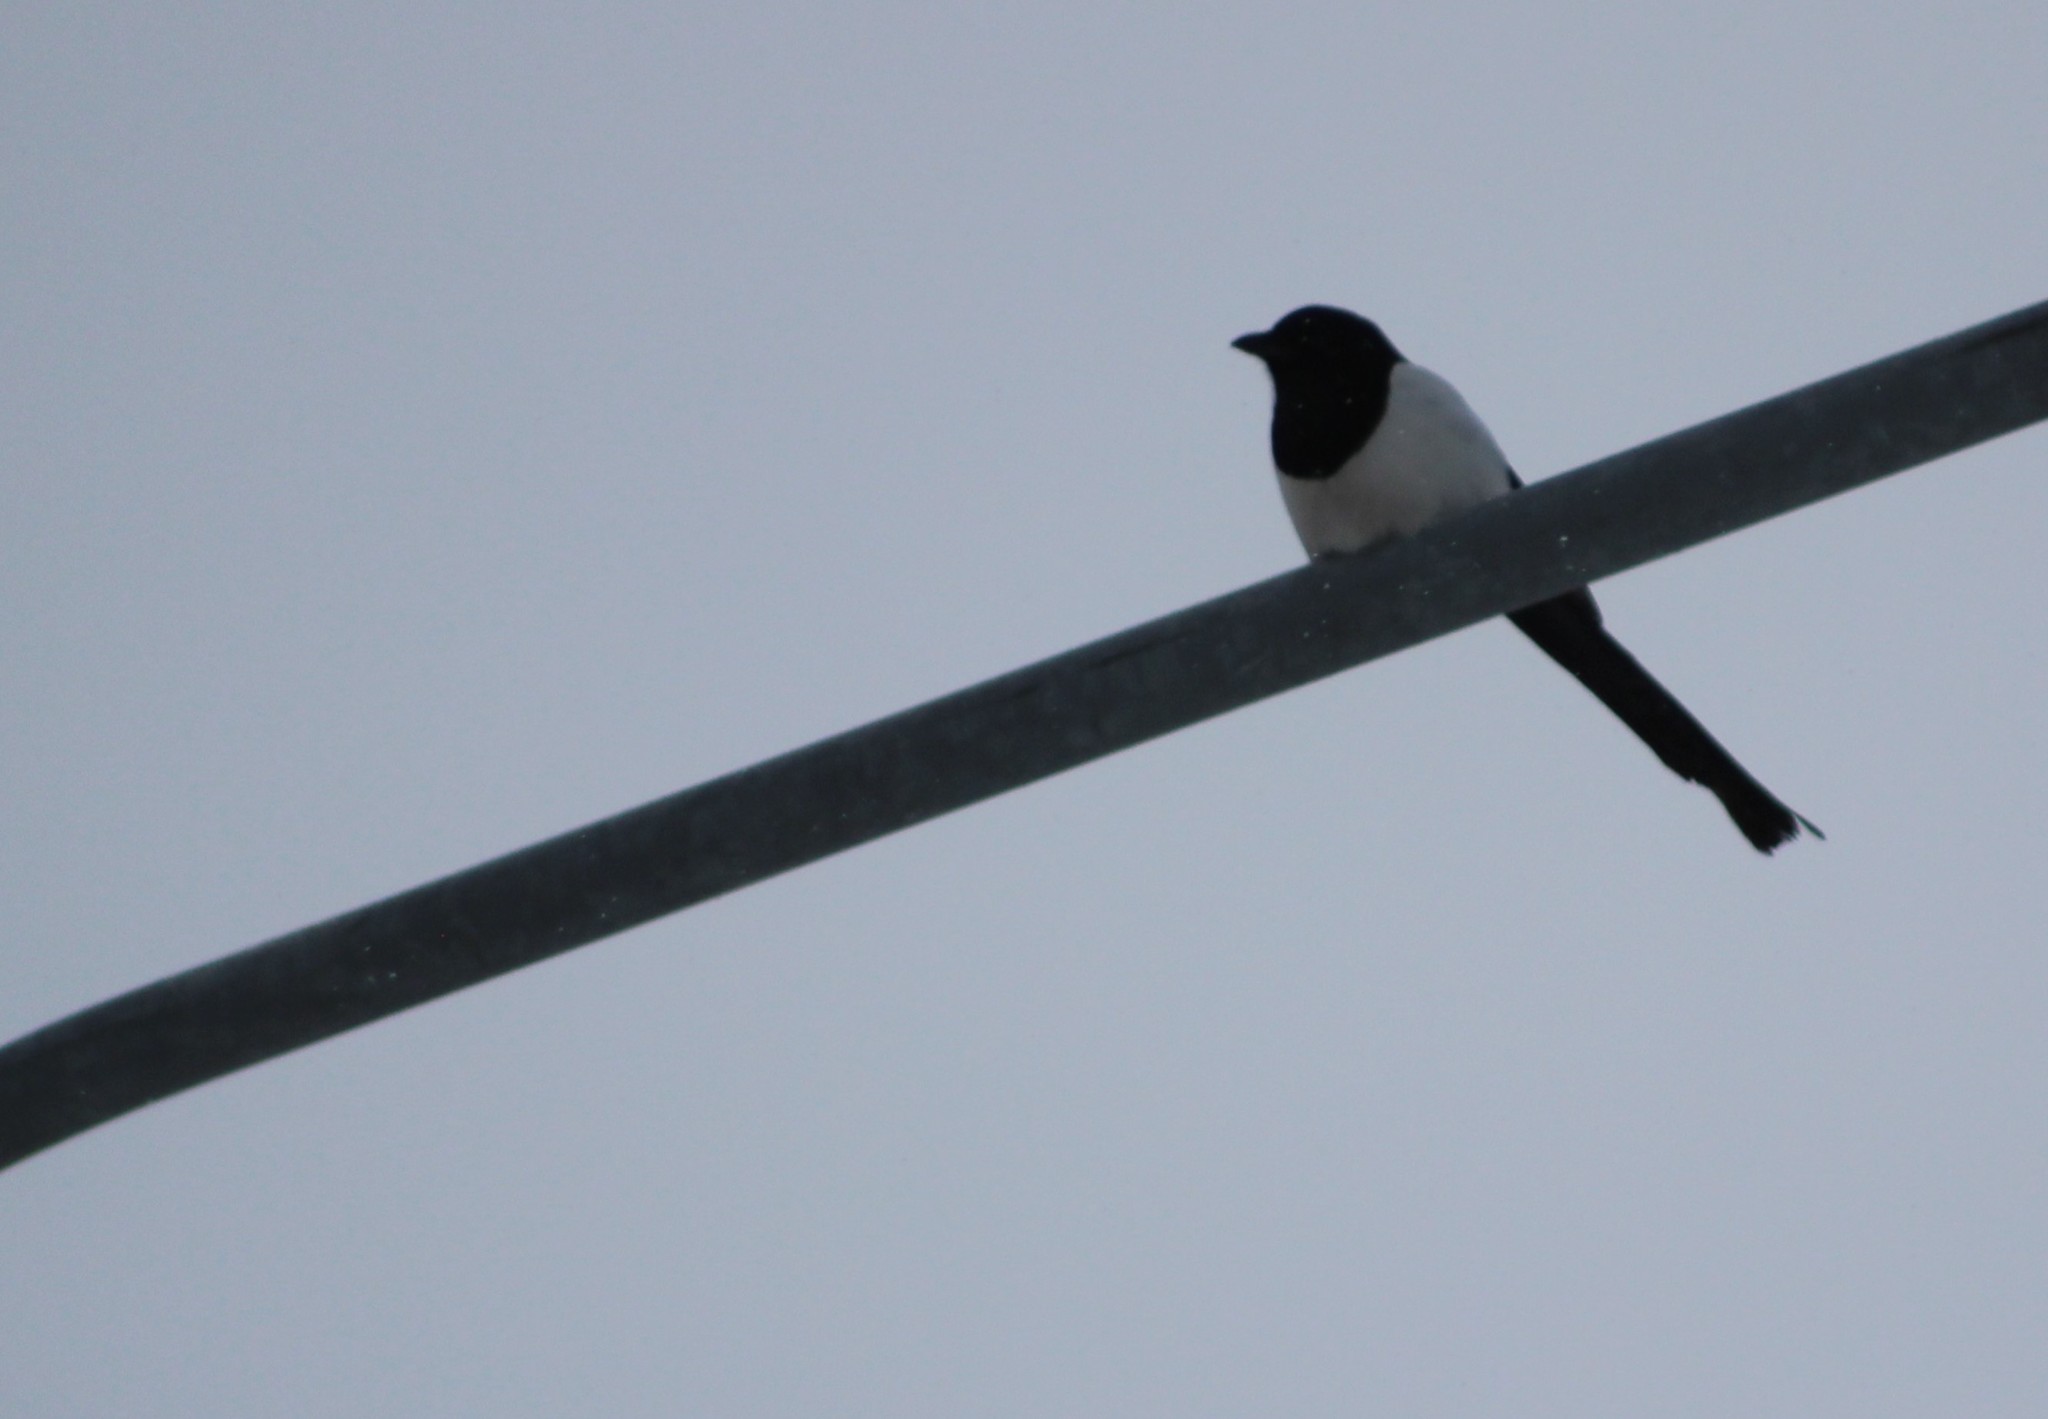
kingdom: Animalia
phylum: Chordata
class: Aves
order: Passeriformes
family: Corvidae
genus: Pica
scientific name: Pica pica
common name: Eurasian magpie
